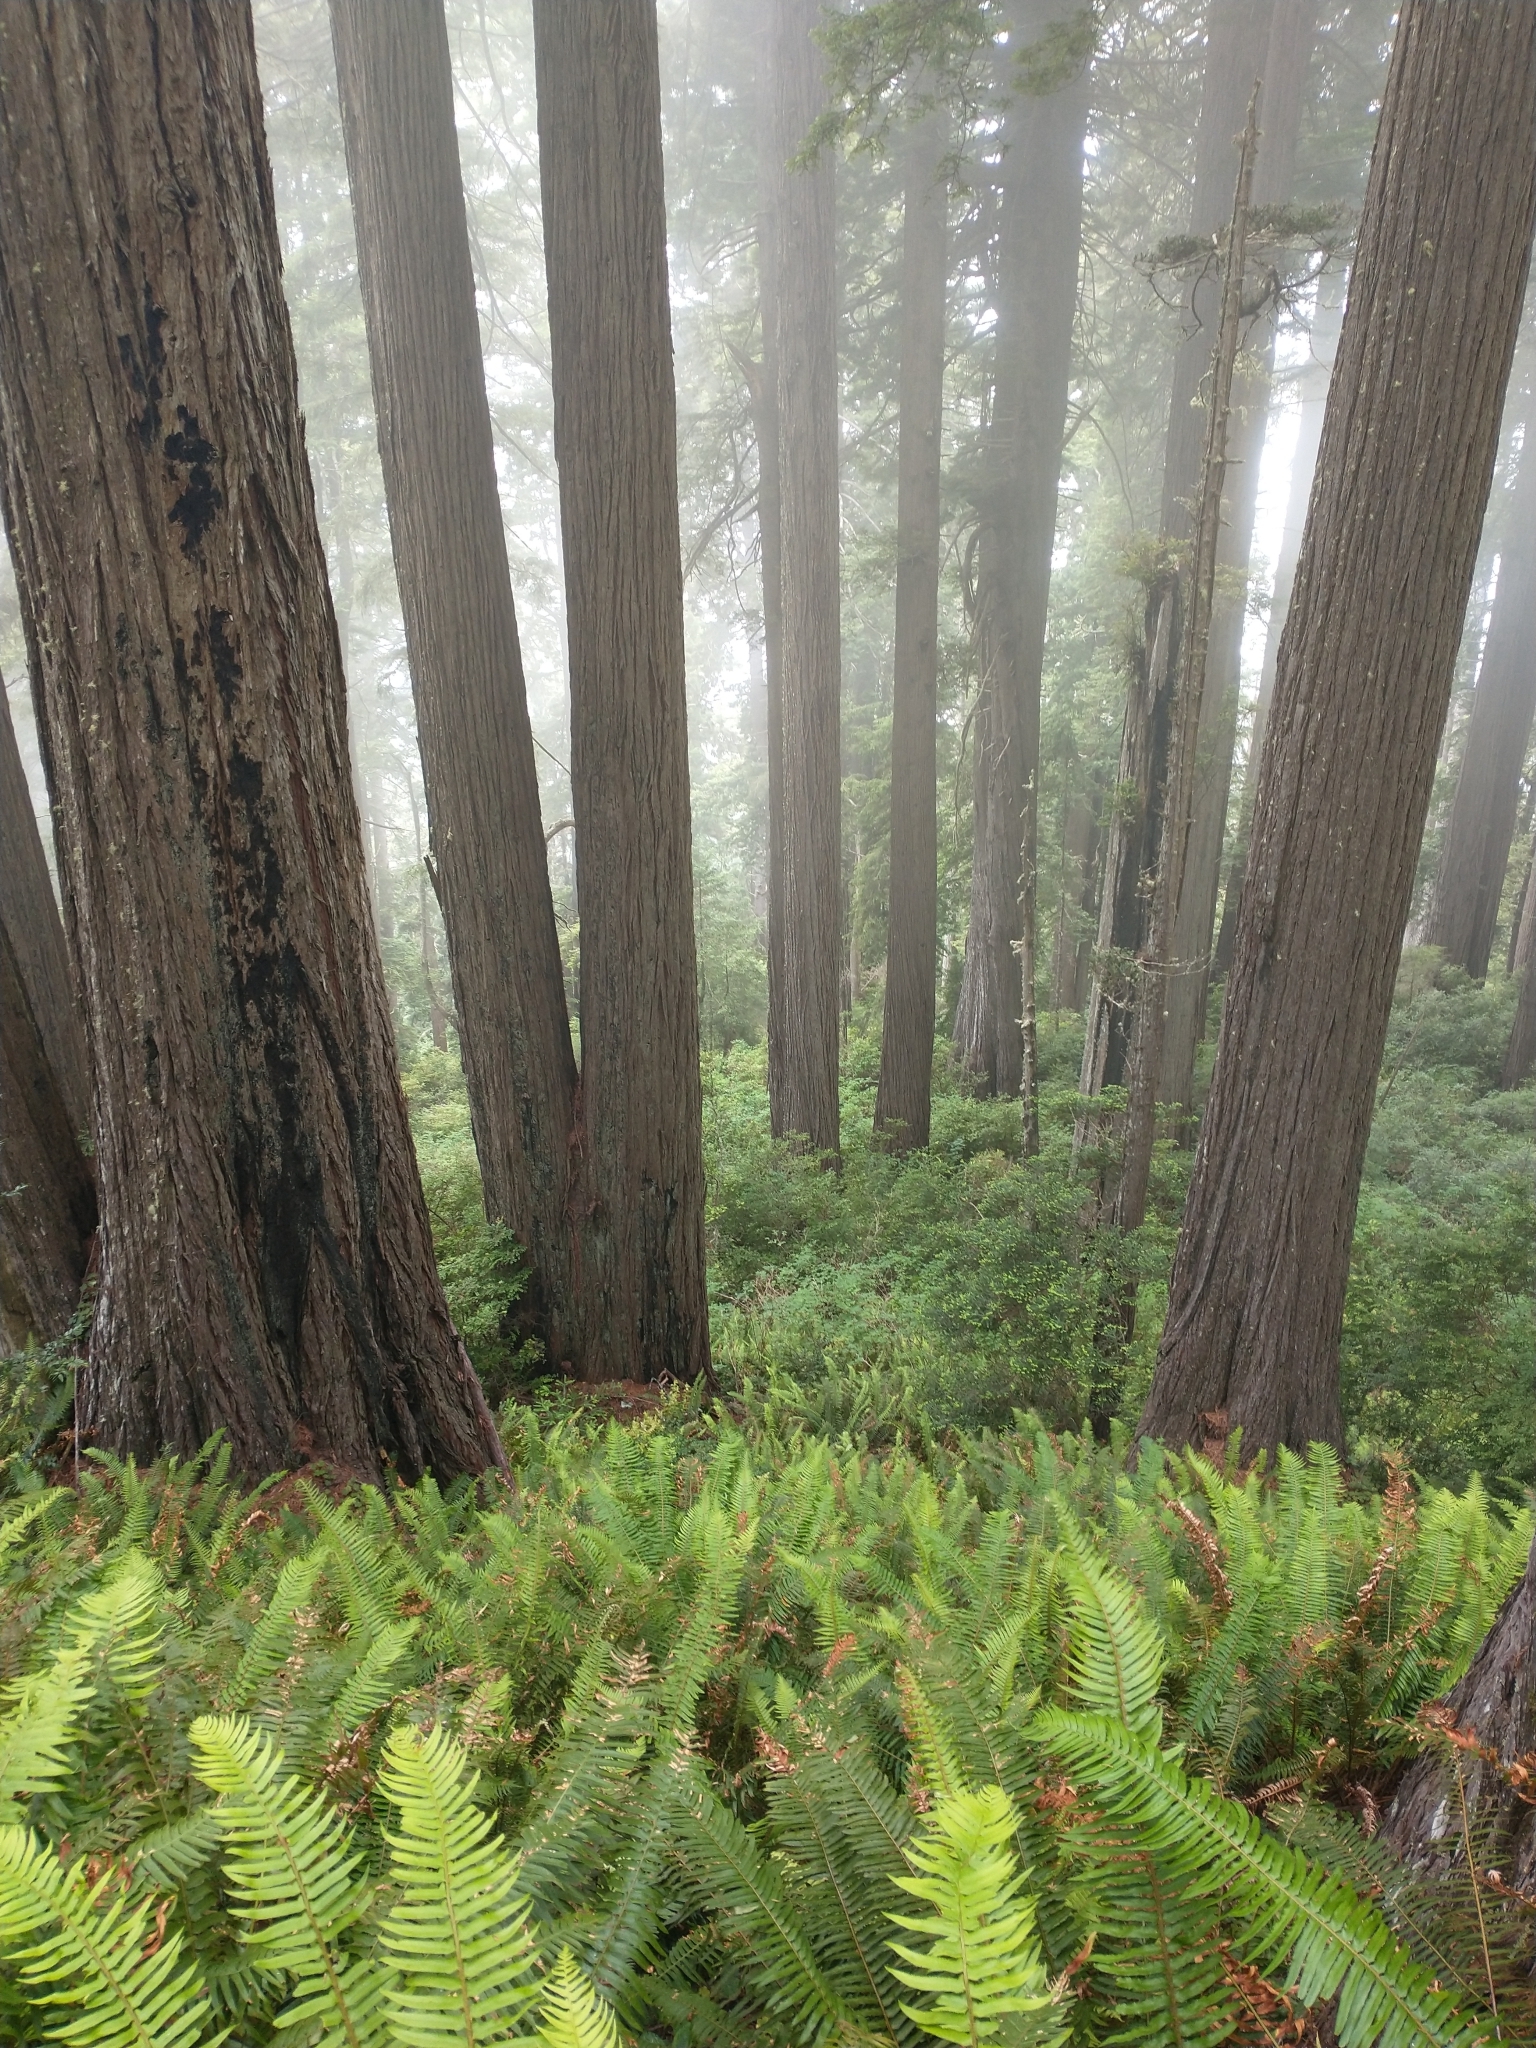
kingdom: Plantae
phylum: Tracheophyta
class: Polypodiopsida
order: Polypodiales
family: Dryopteridaceae
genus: Polystichum
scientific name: Polystichum munitum
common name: Western sword-fern
